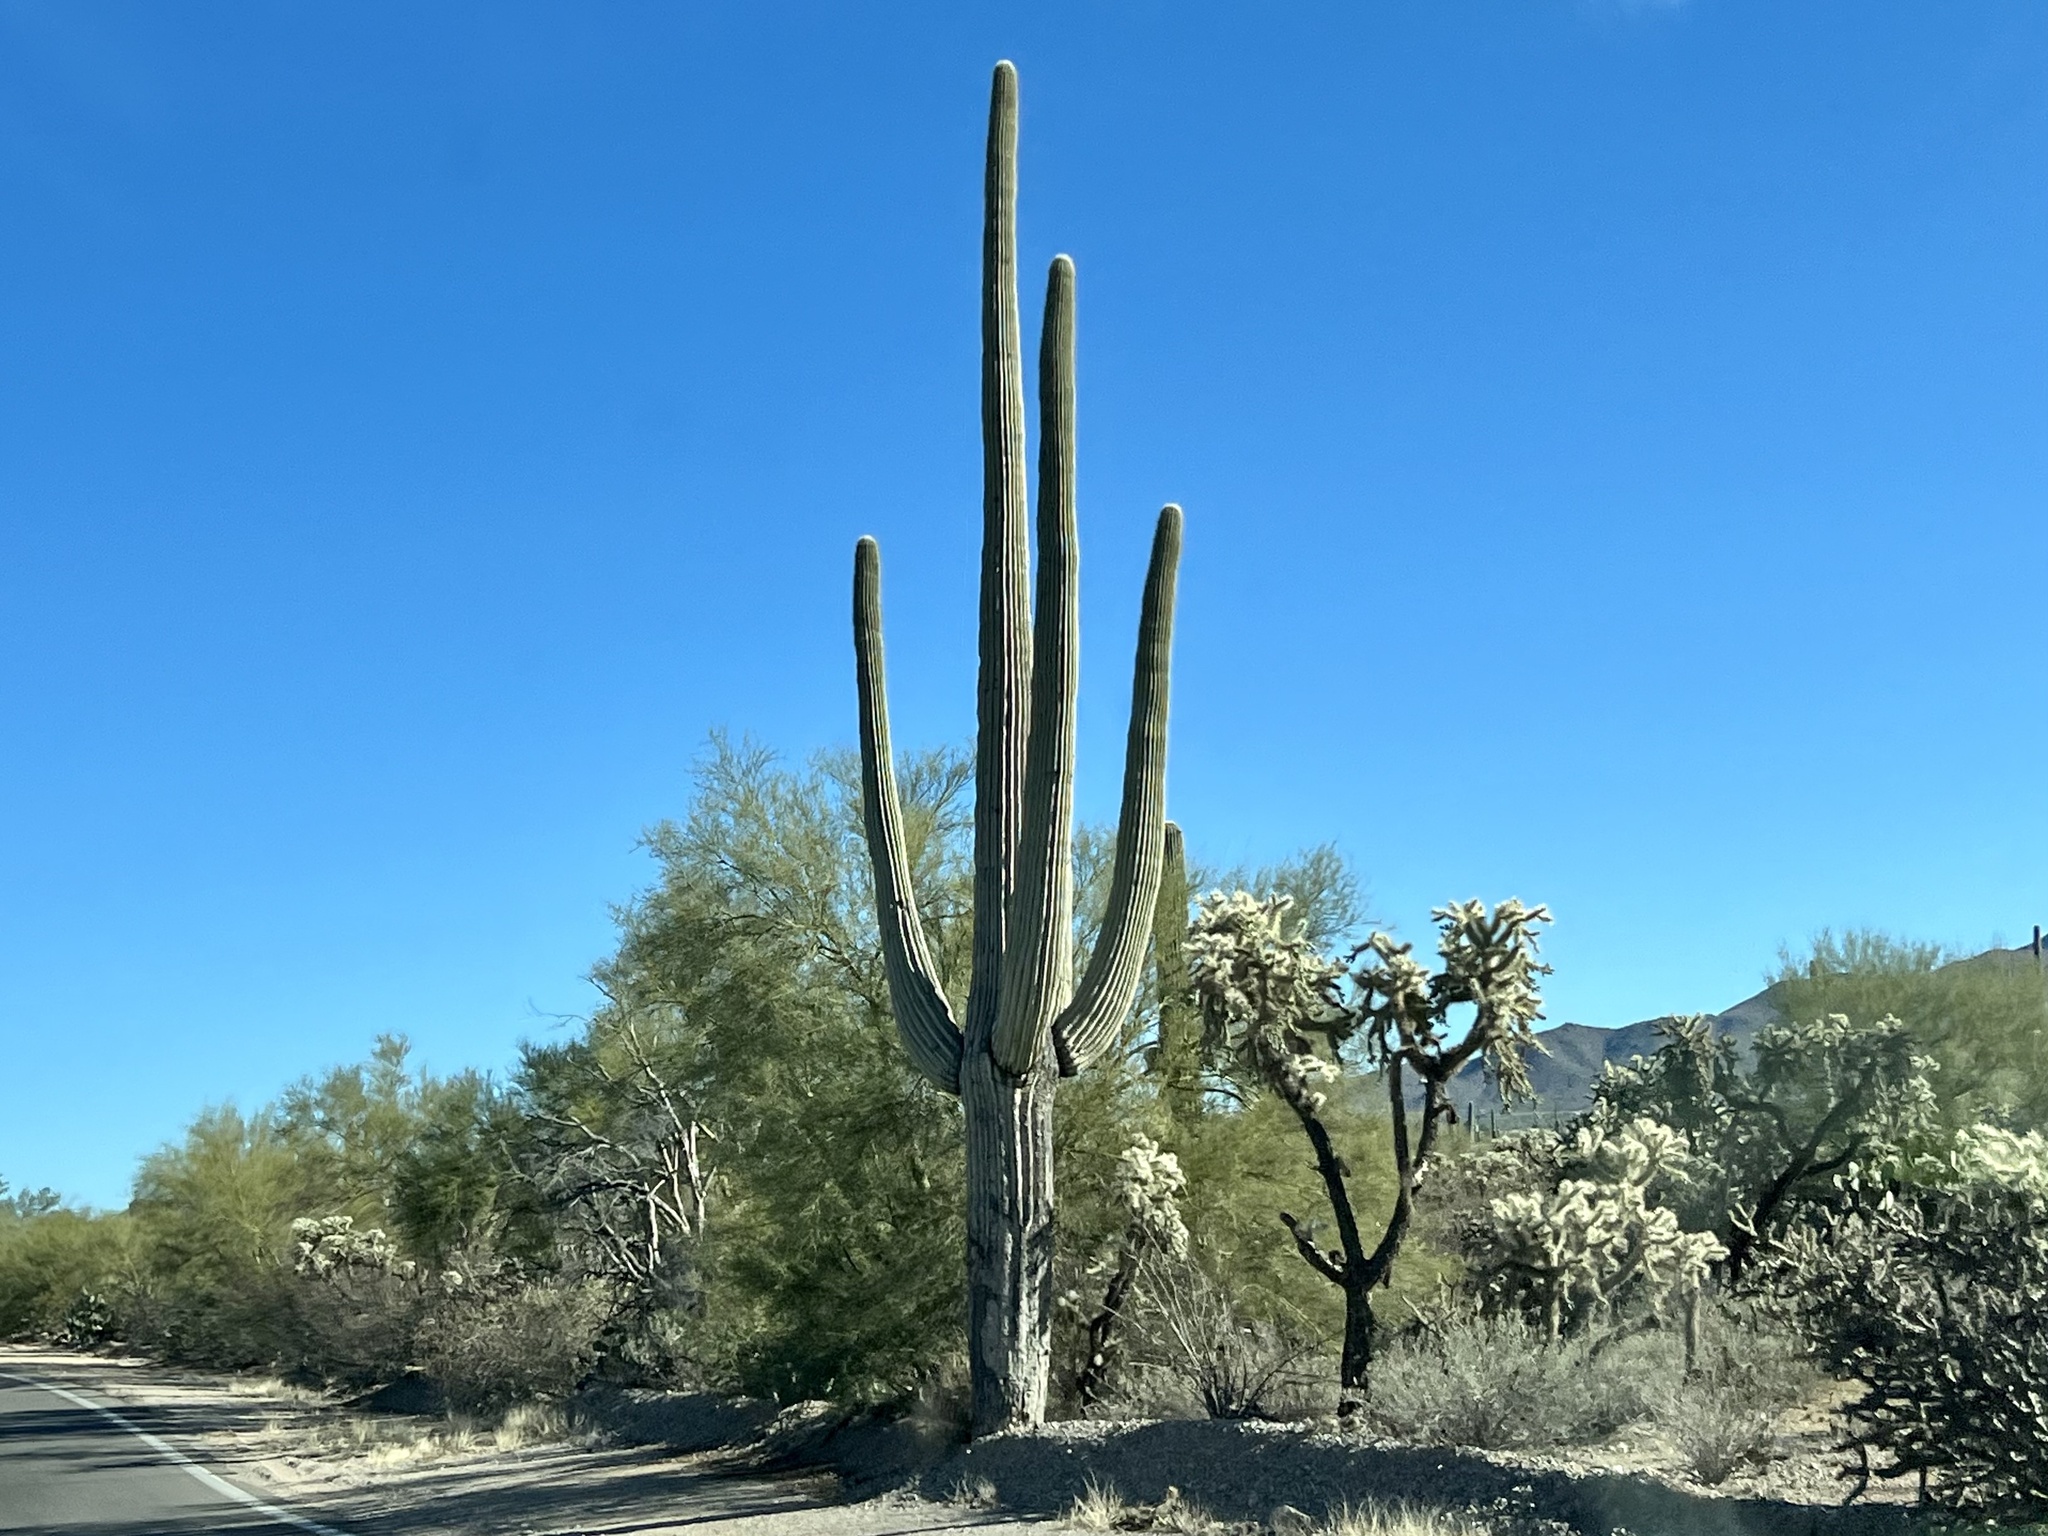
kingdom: Plantae
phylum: Tracheophyta
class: Magnoliopsida
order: Caryophyllales
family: Cactaceae
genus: Carnegiea
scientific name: Carnegiea gigantea
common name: Saguaro
